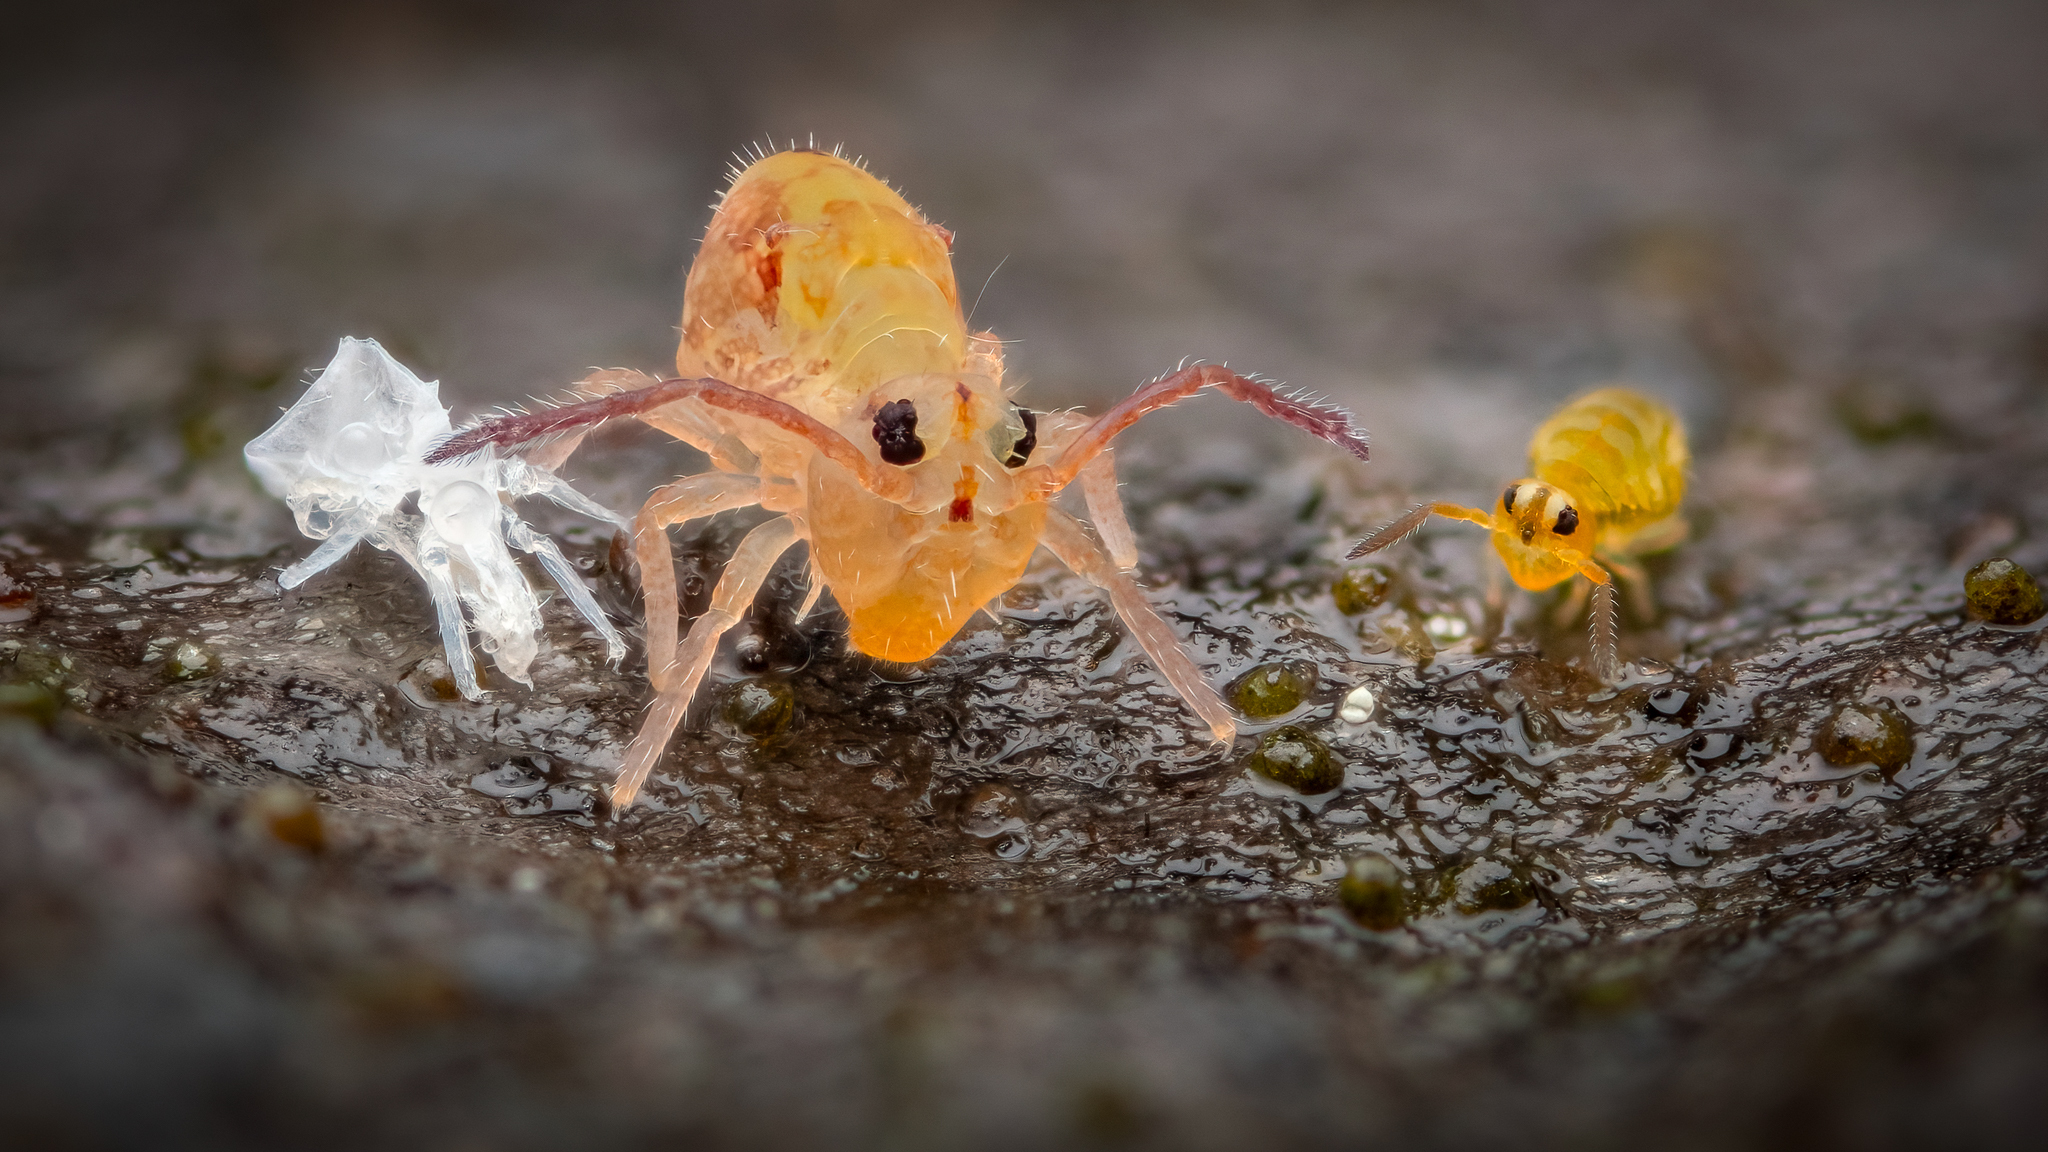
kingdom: Animalia
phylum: Arthropoda
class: Collembola
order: Symphypleona
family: Dicyrtomidae
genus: Dicyrtomina
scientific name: Dicyrtomina ornata
